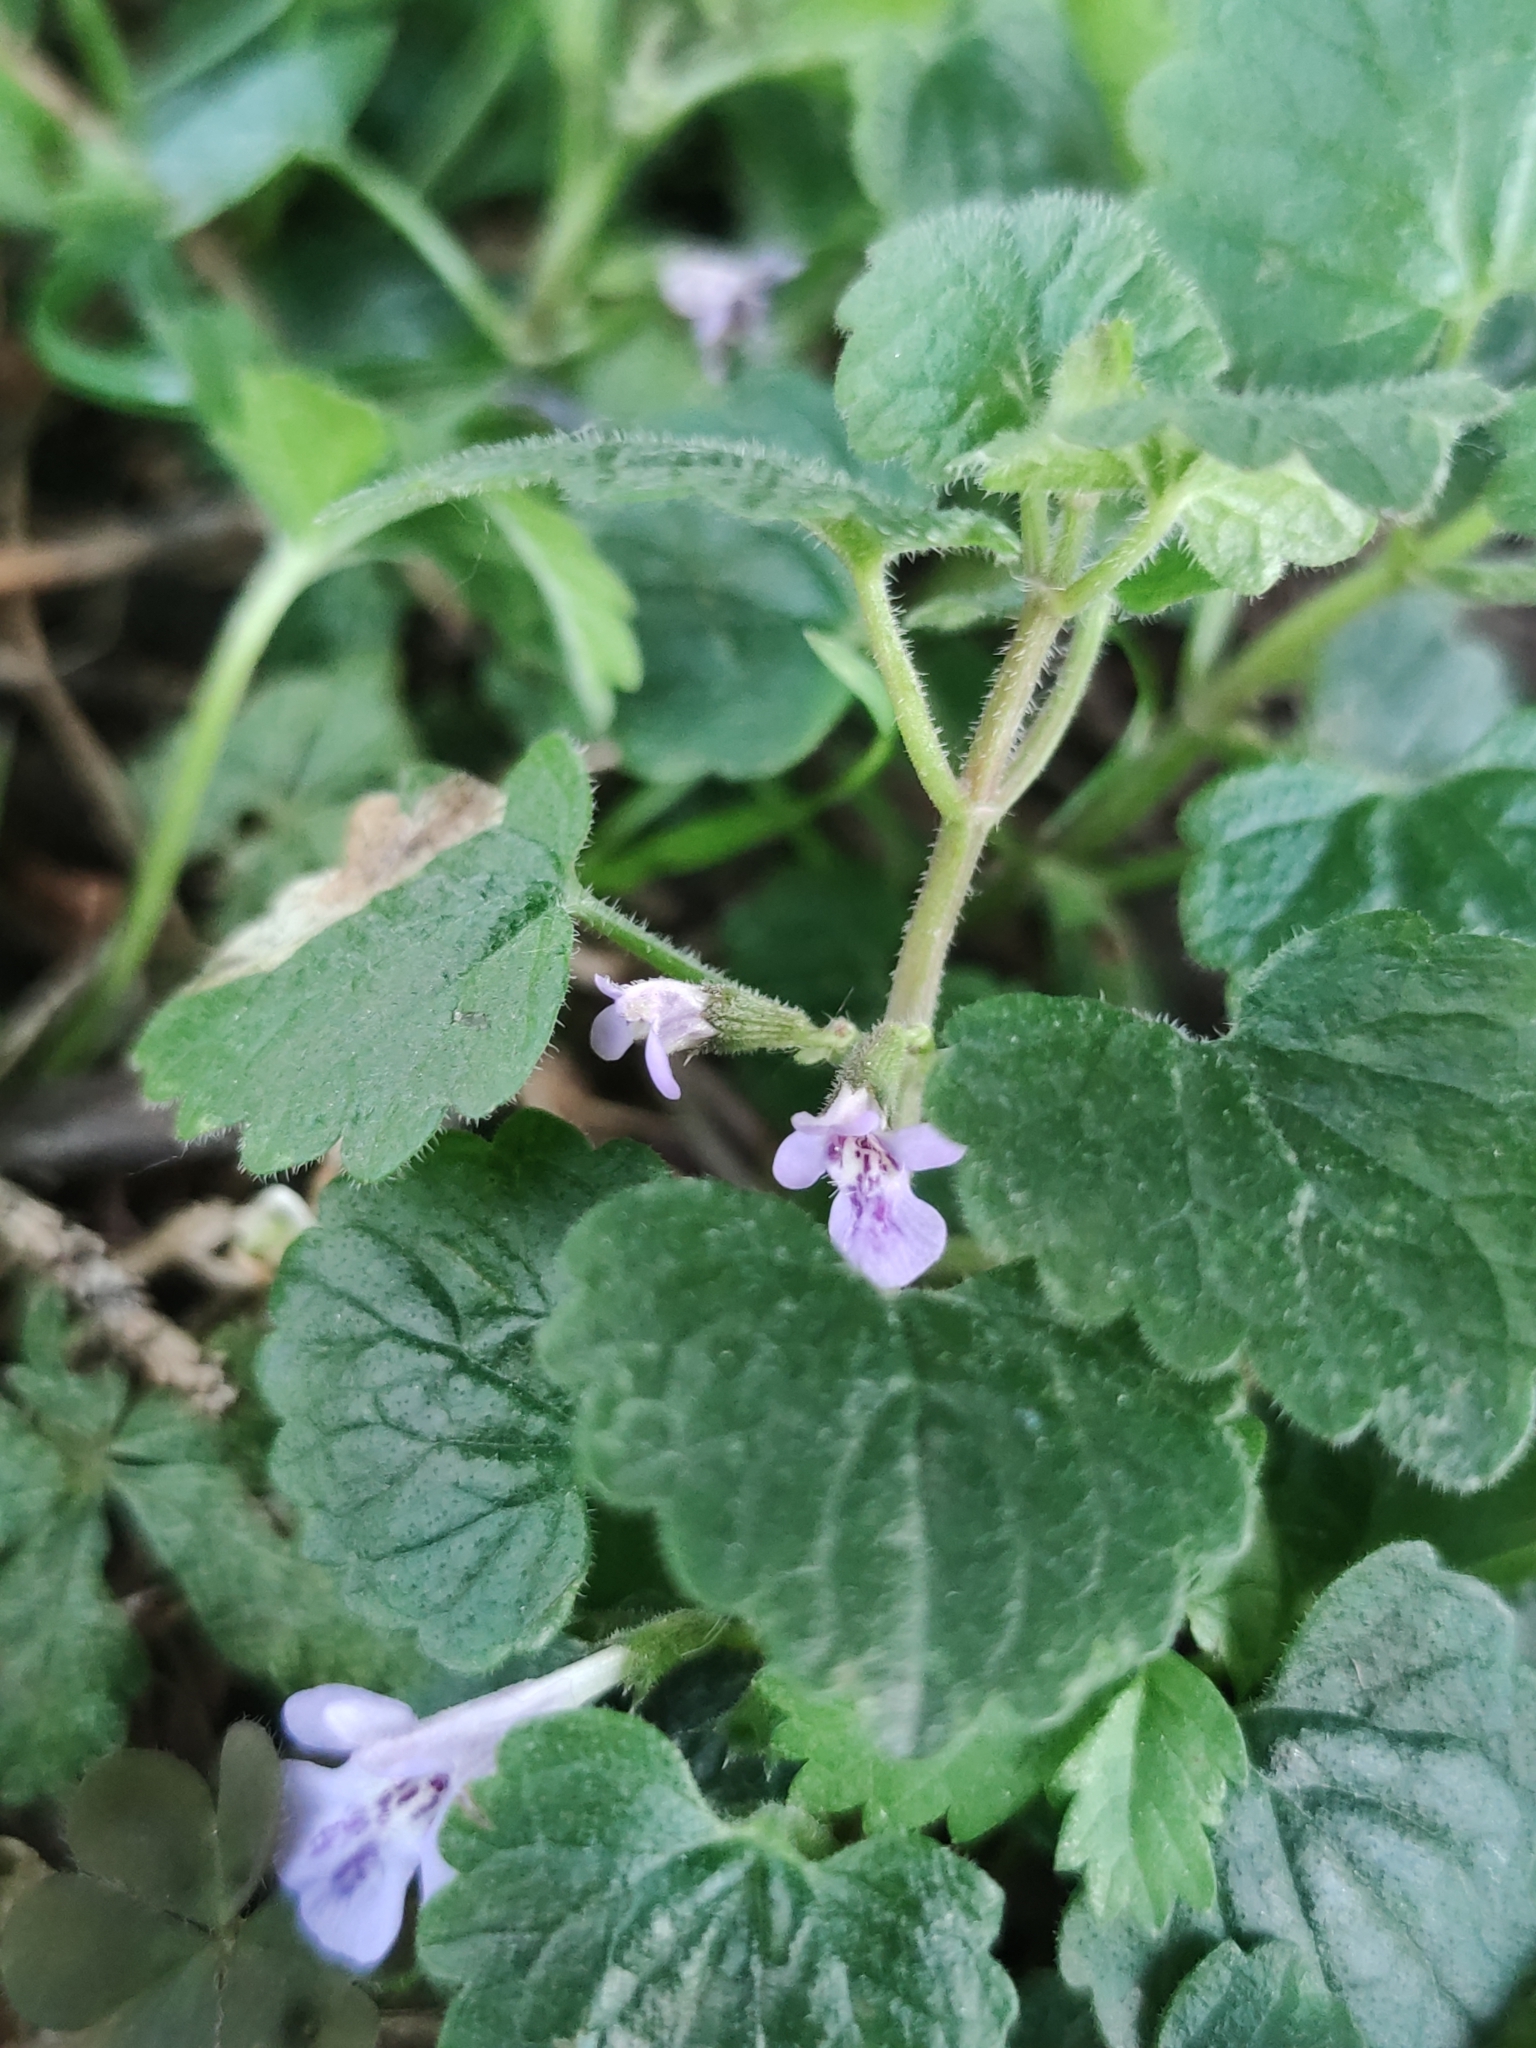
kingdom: Plantae
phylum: Tracheophyta
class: Magnoliopsida
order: Lamiales
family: Lamiaceae
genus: Glechoma
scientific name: Glechoma hederacea
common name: Ground ivy
